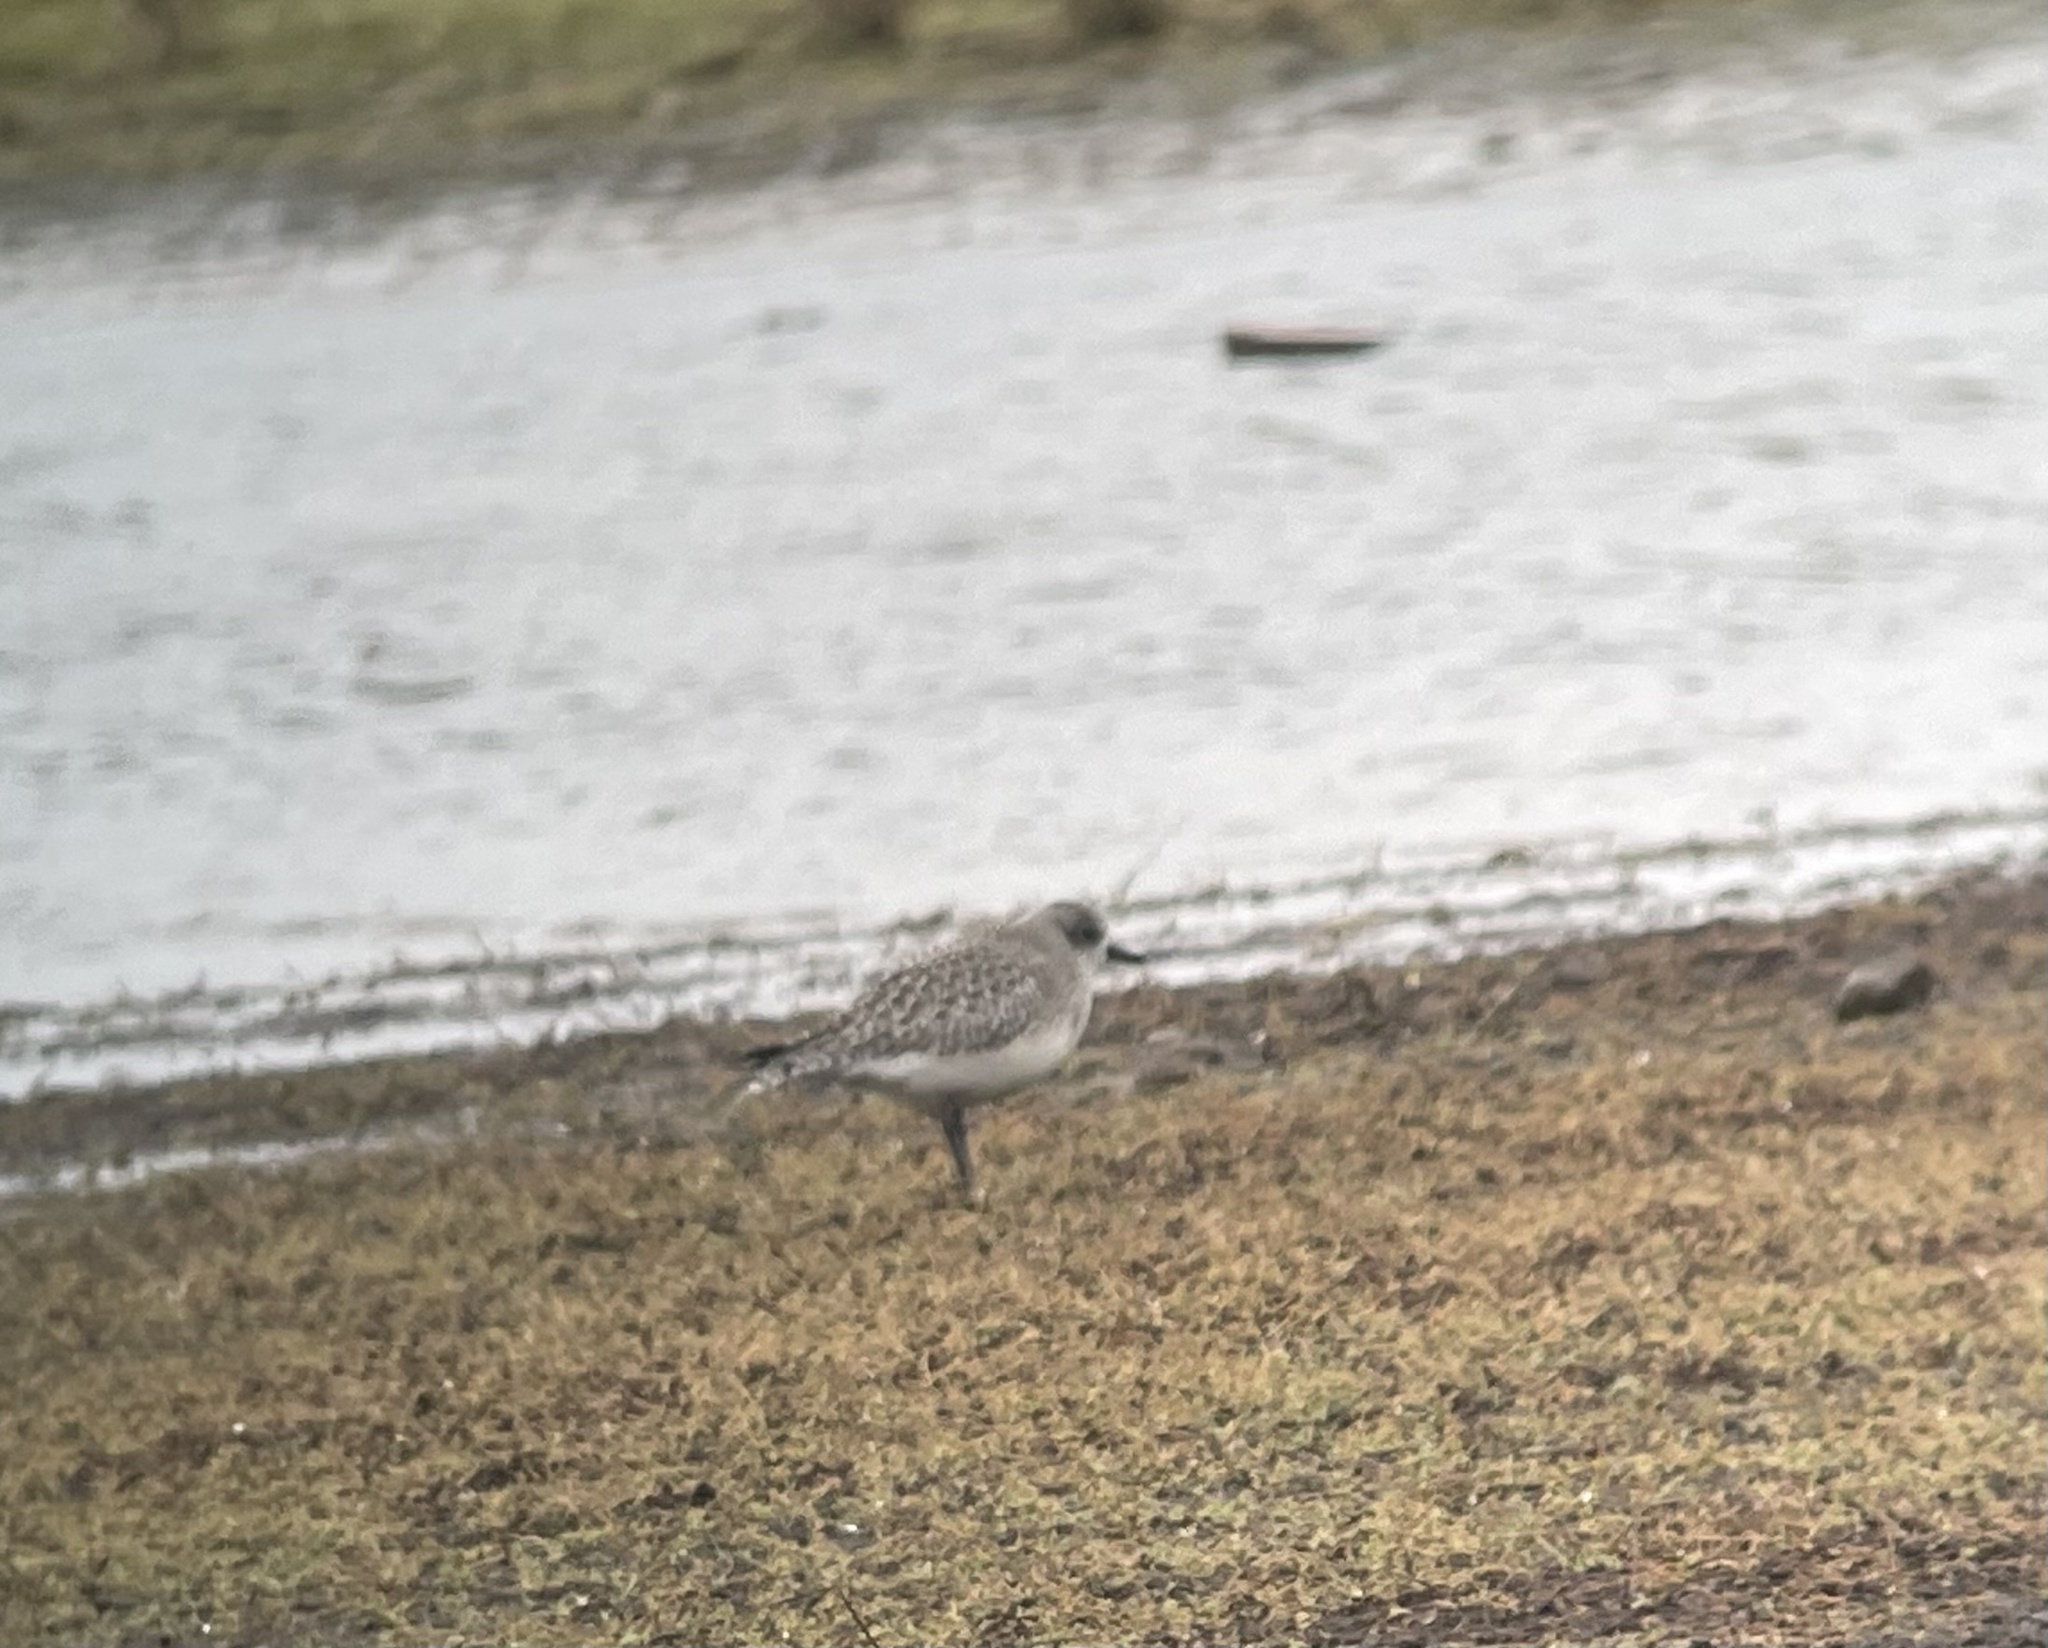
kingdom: Animalia
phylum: Chordata
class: Aves
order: Charadriiformes
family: Charadriidae
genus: Pluvialis
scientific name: Pluvialis squatarola
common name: Grey plover
